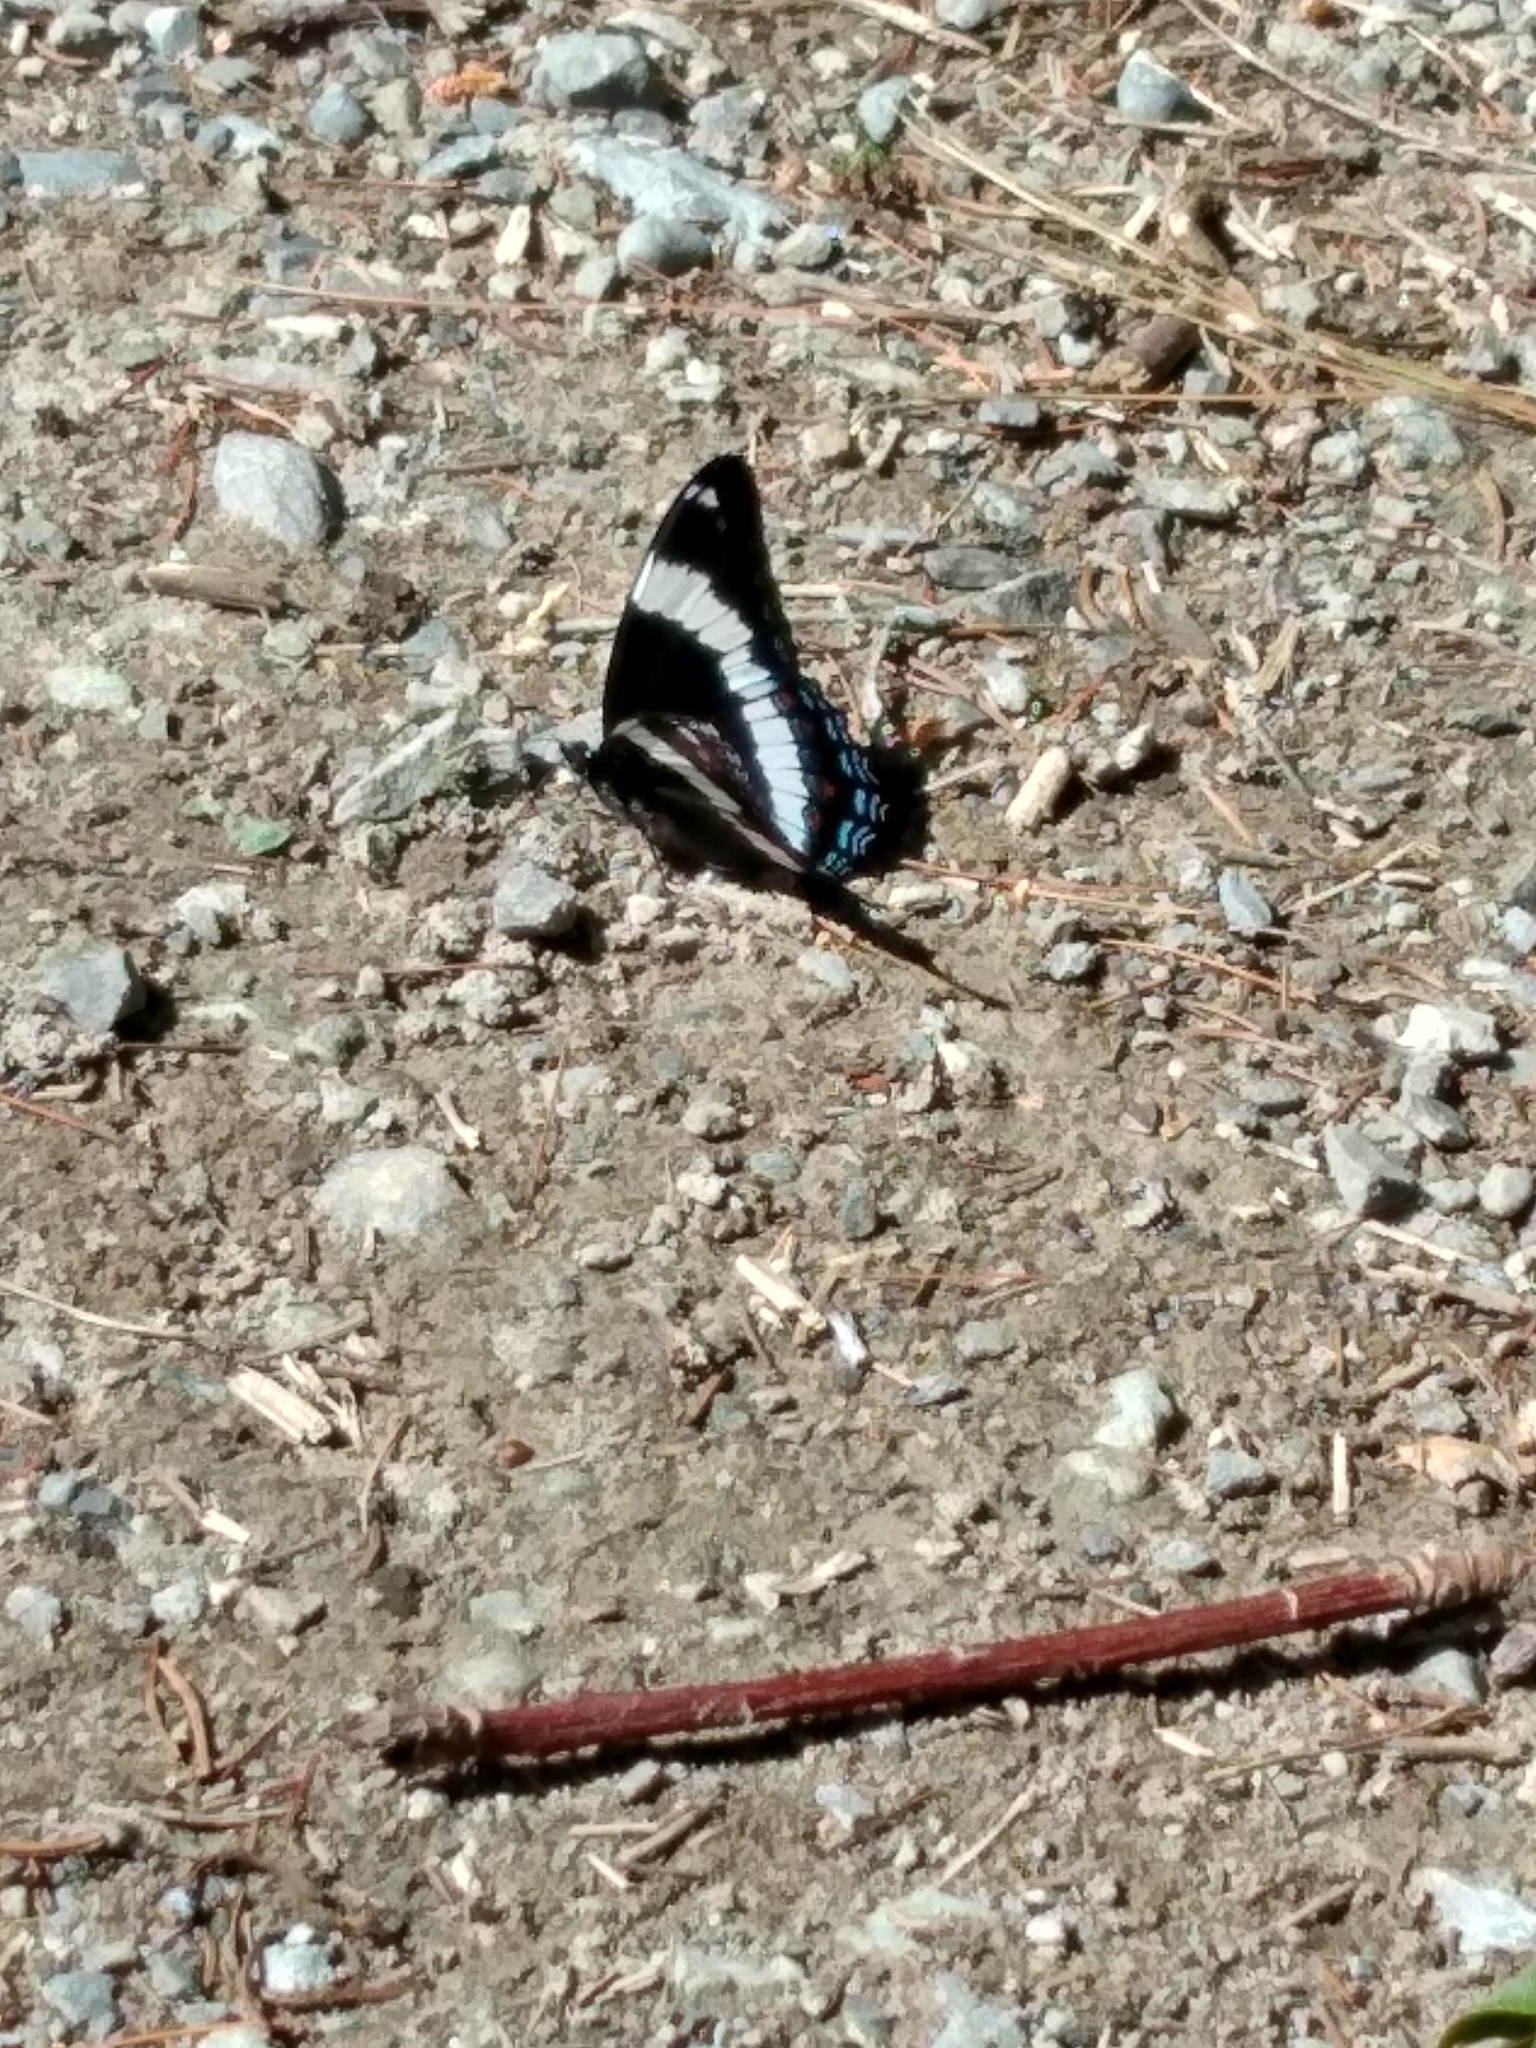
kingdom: Animalia
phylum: Arthropoda
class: Insecta
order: Lepidoptera
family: Nymphalidae
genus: Limenitis
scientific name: Limenitis arthemis
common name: Red-spotted admiral
